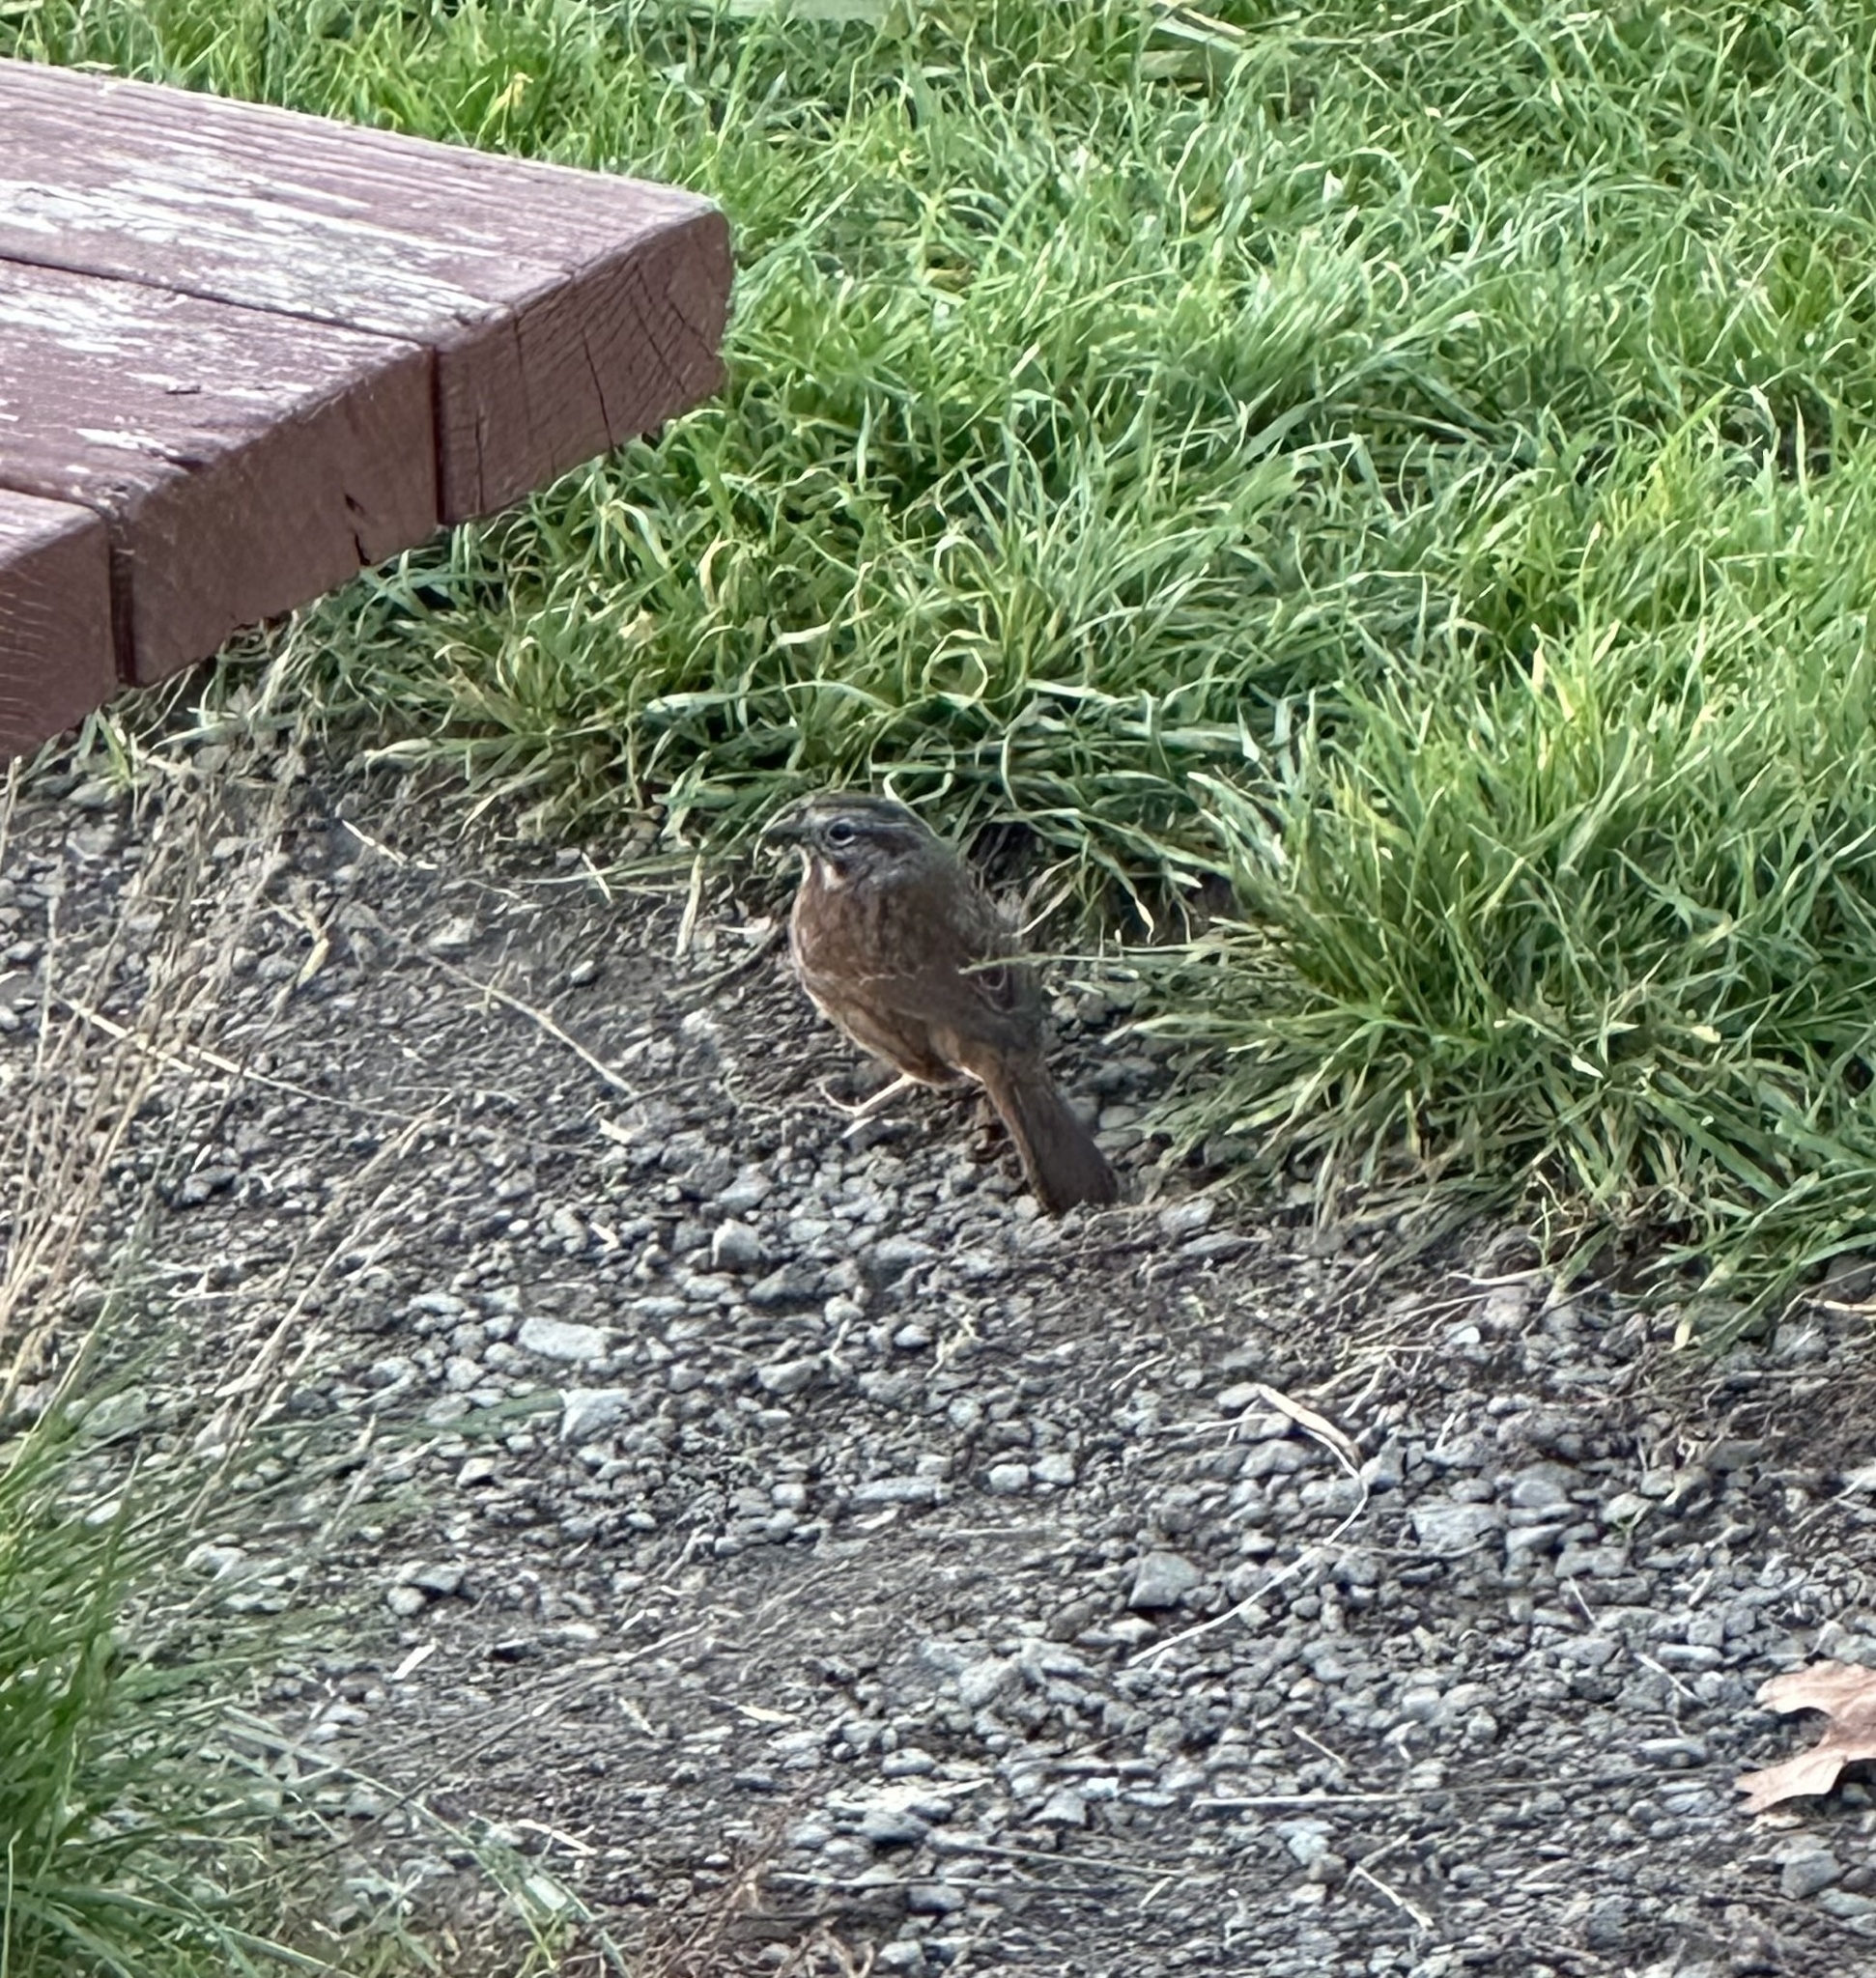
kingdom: Animalia
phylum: Chordata
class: Aves
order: Passeriformes
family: Passerellidae
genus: Melospiza
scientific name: Melospiza melodia
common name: Song sparrow
